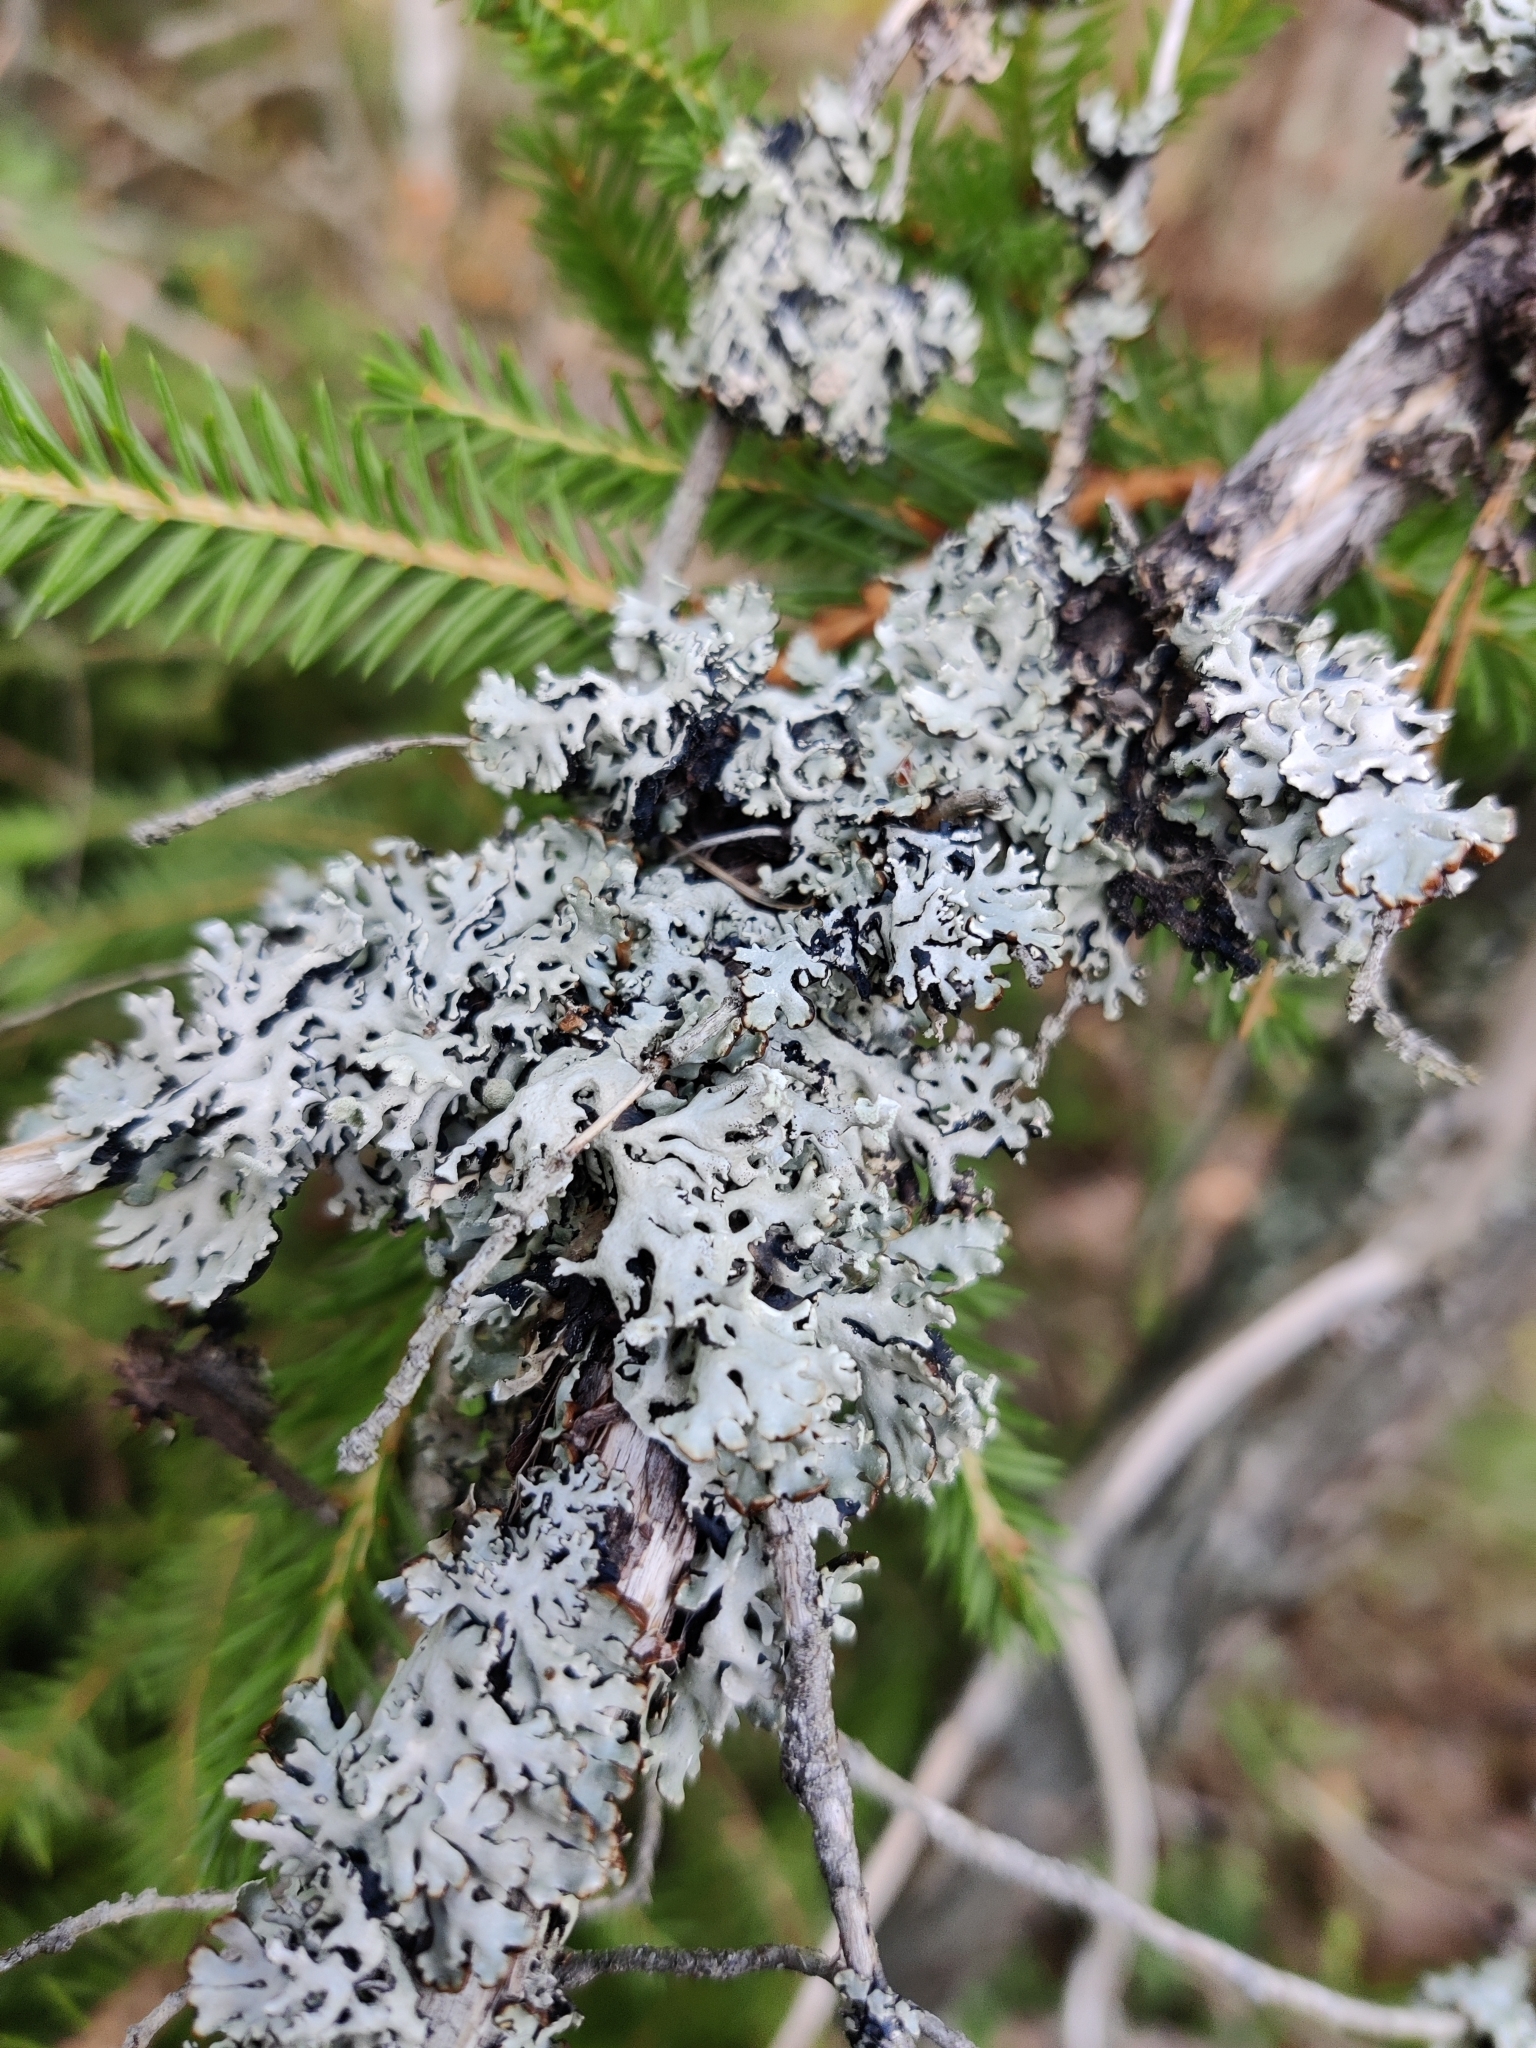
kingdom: Fungi
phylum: Ascomycota
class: Lecanoromycetes
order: Lecanorales
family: Parmeliaceae
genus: Hypogymnia
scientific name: Hypogymnia physodes
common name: Dark crottle
